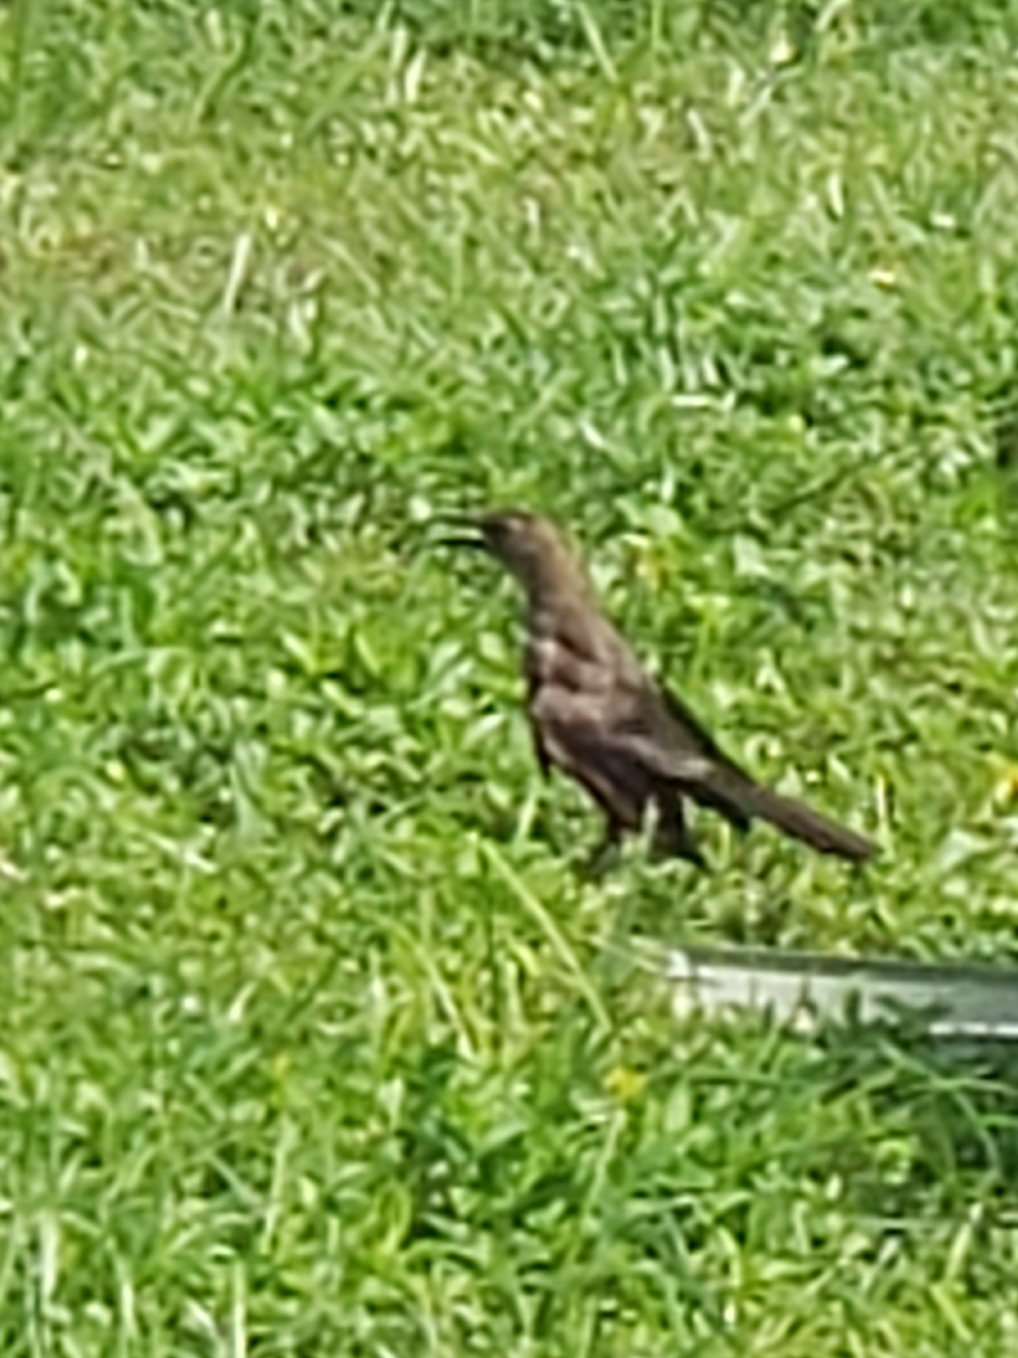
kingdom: Animalia
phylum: Chordata
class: Aves
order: Passeriformes
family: Icteridae
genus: Quiscalus
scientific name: Quiscalus major
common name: Boat-tailed grackle
